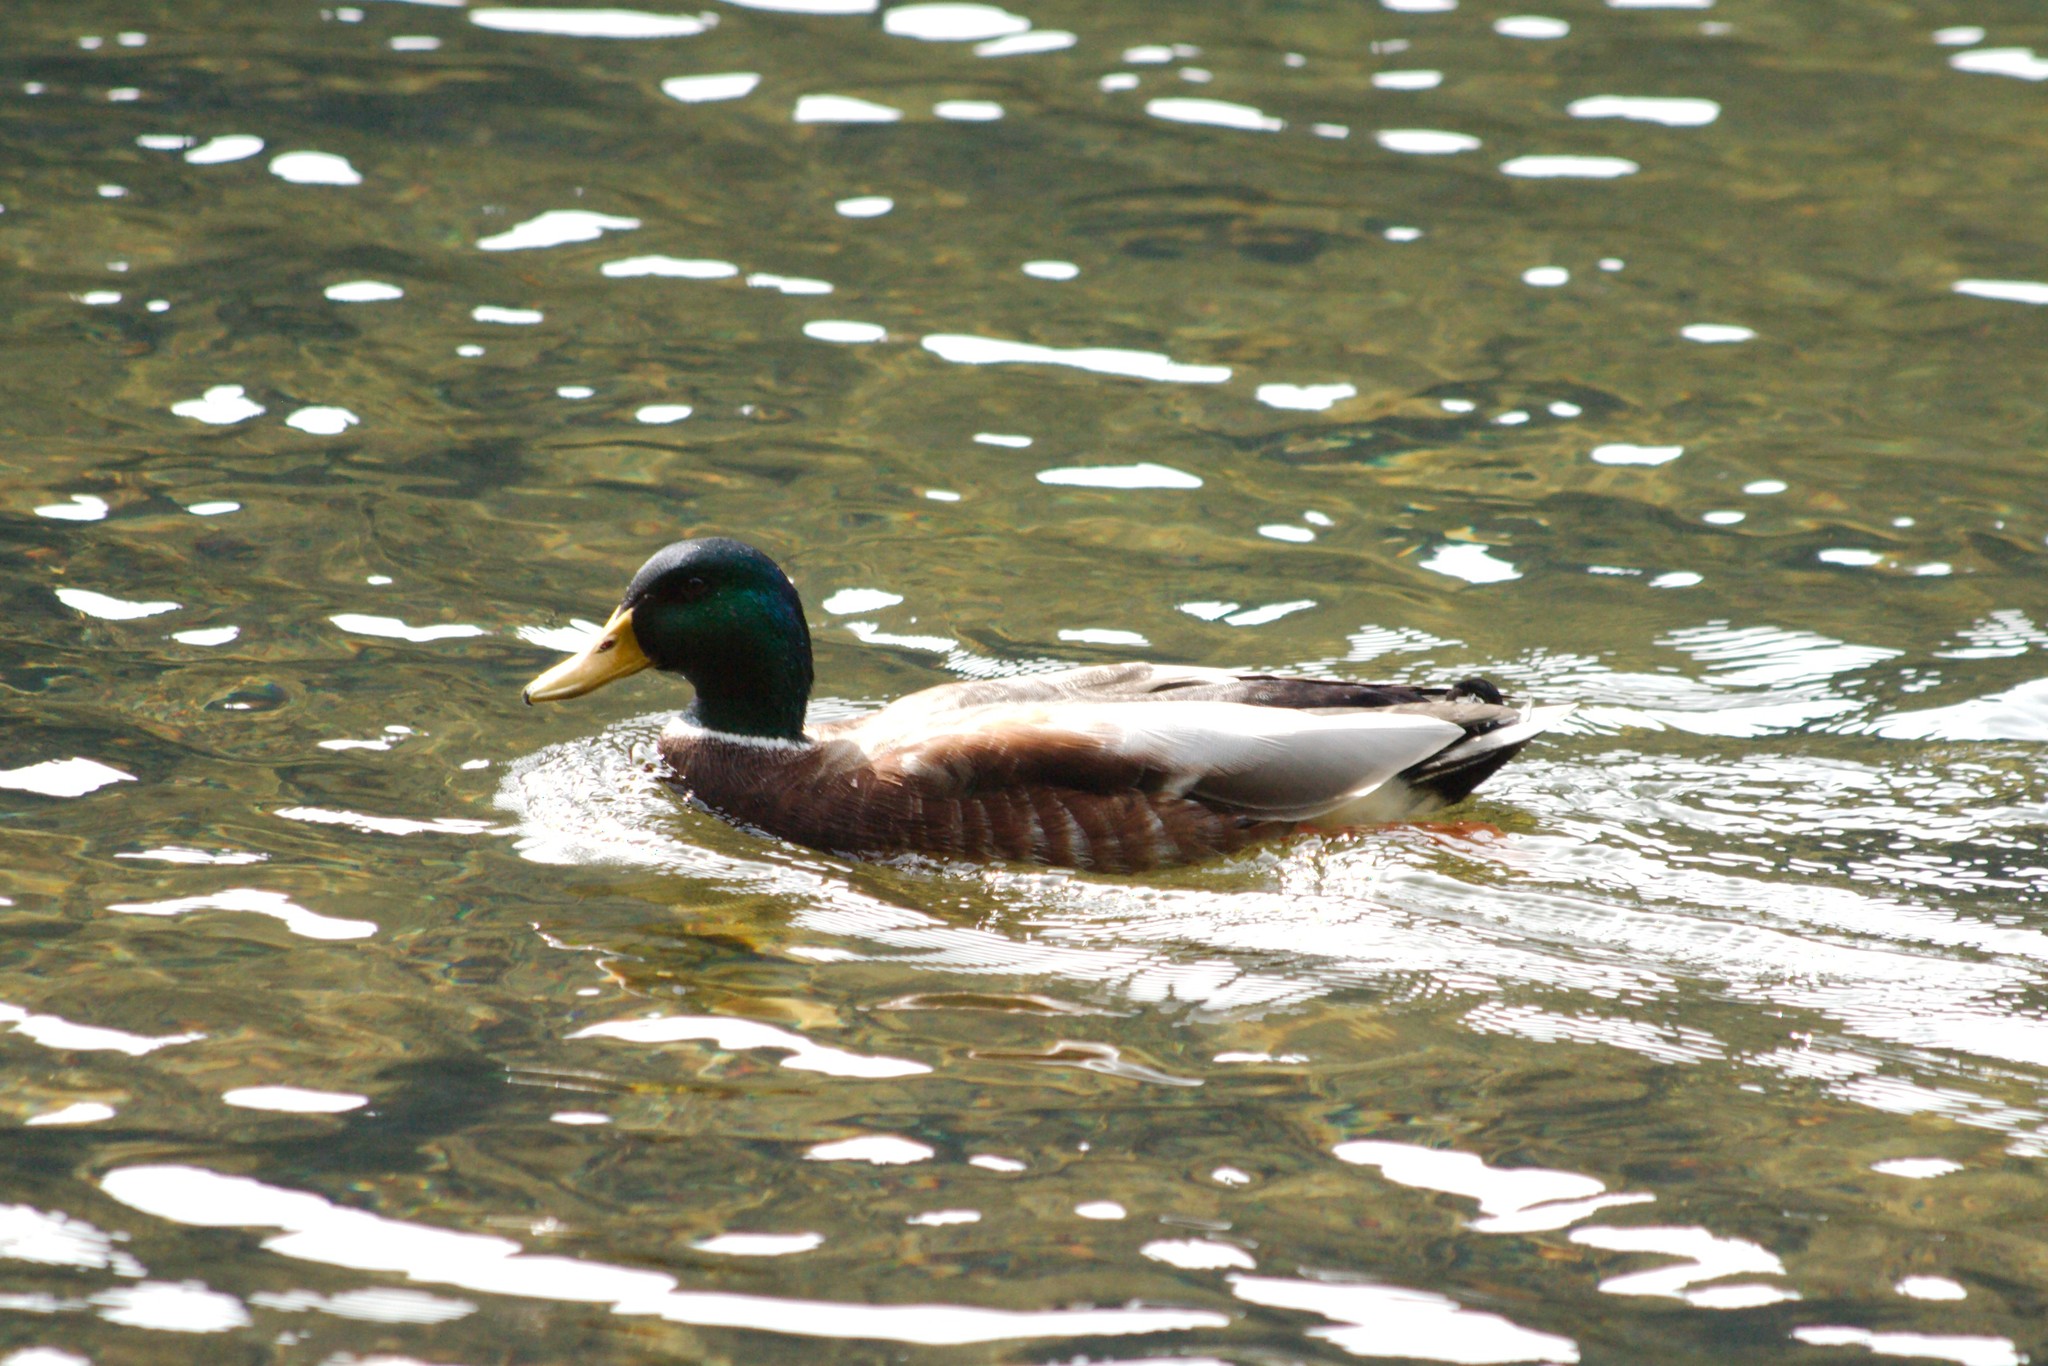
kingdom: Animalia
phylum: Chordata
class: Aves
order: Anseriformes
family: Anatidae
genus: Anas
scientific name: Anas platyrhynchos
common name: Mallard
